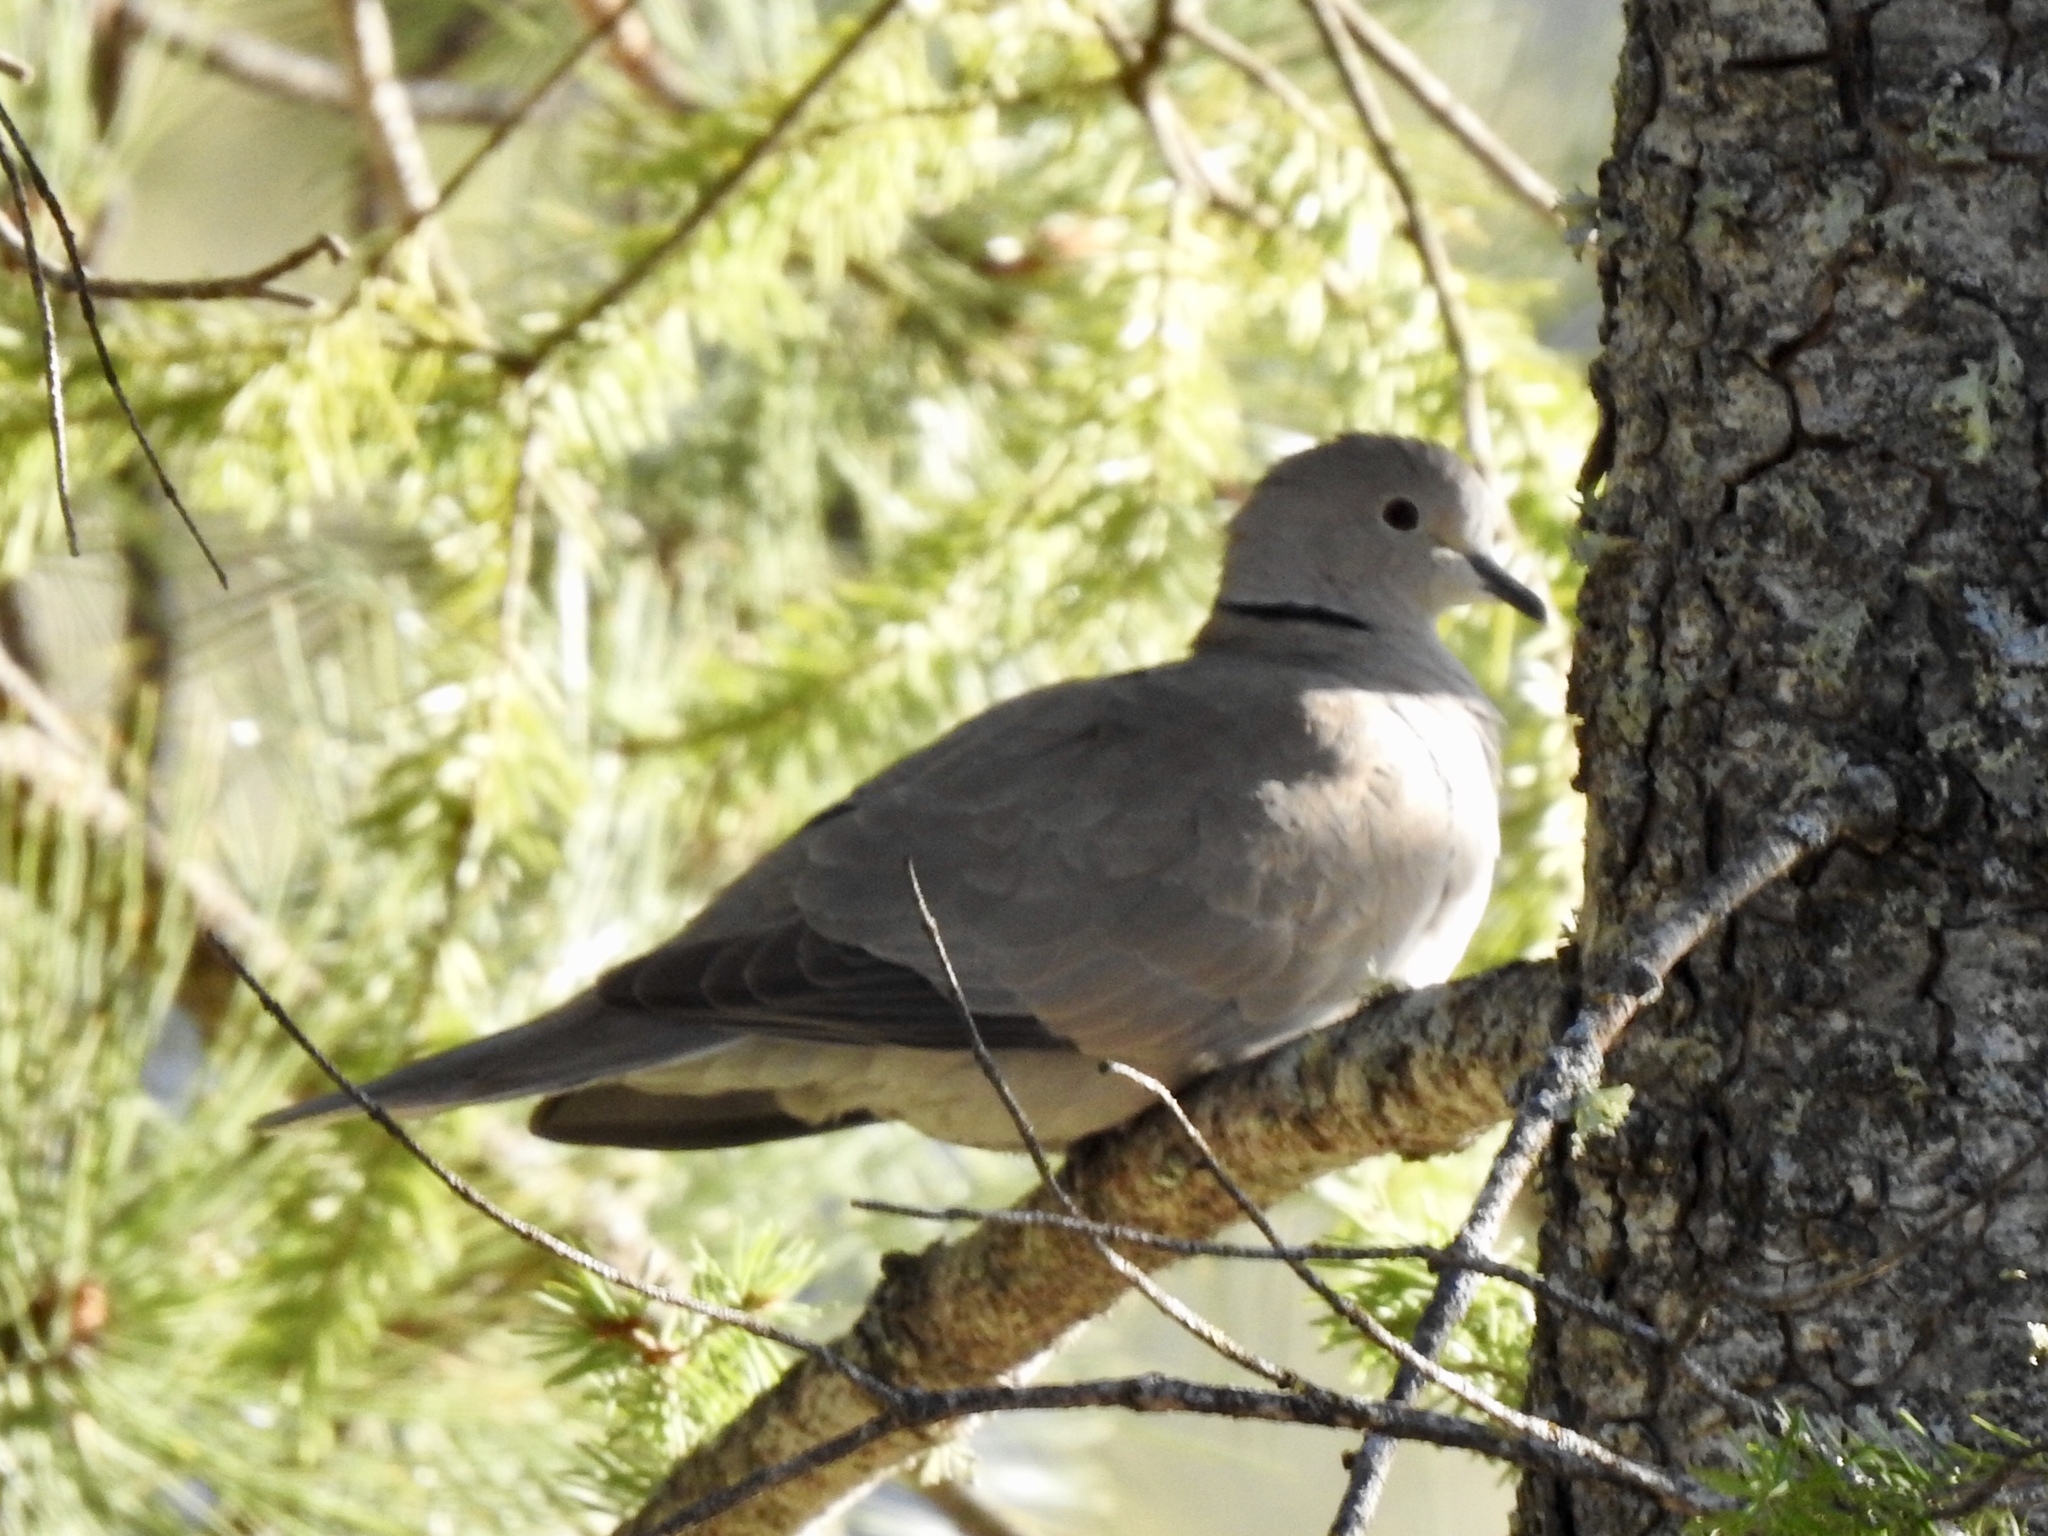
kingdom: Animalia
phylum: Chordata
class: Aves
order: Columbiformes
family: Columbidae
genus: Streptopelia
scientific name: Streptopelia decaocto
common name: Eurasian collared dove
